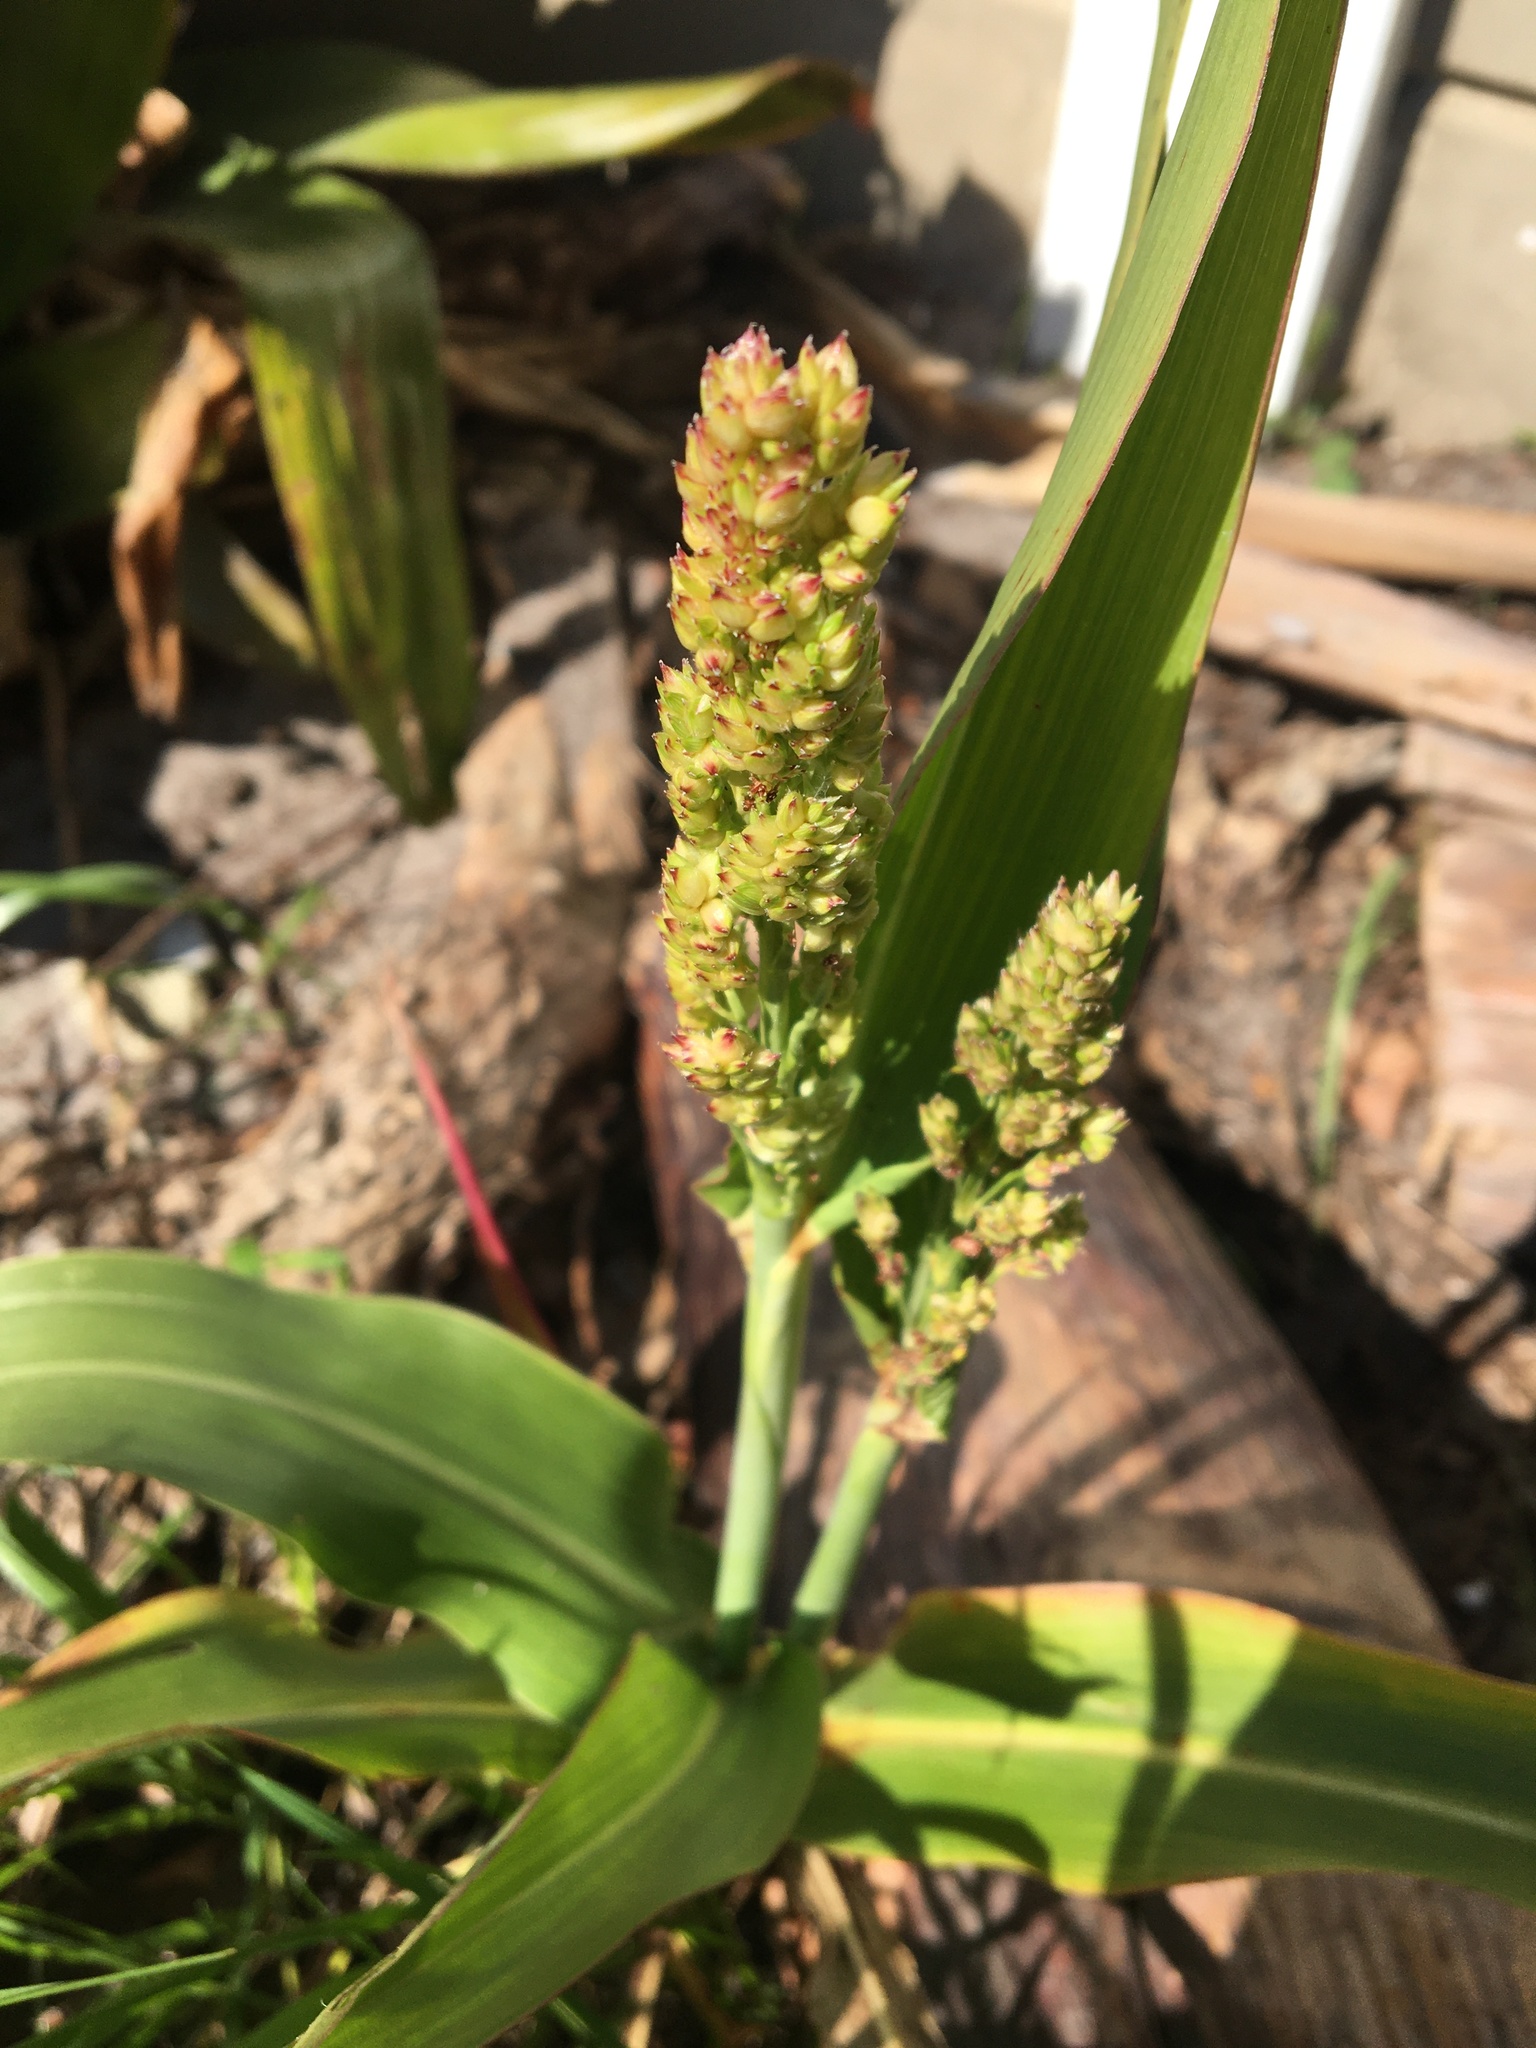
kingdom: Plantae
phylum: Tracheophyta
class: Liliopsida
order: Poales
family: Poaceae
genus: Sorghum
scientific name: Sorghum bicolor
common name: Sorghum
